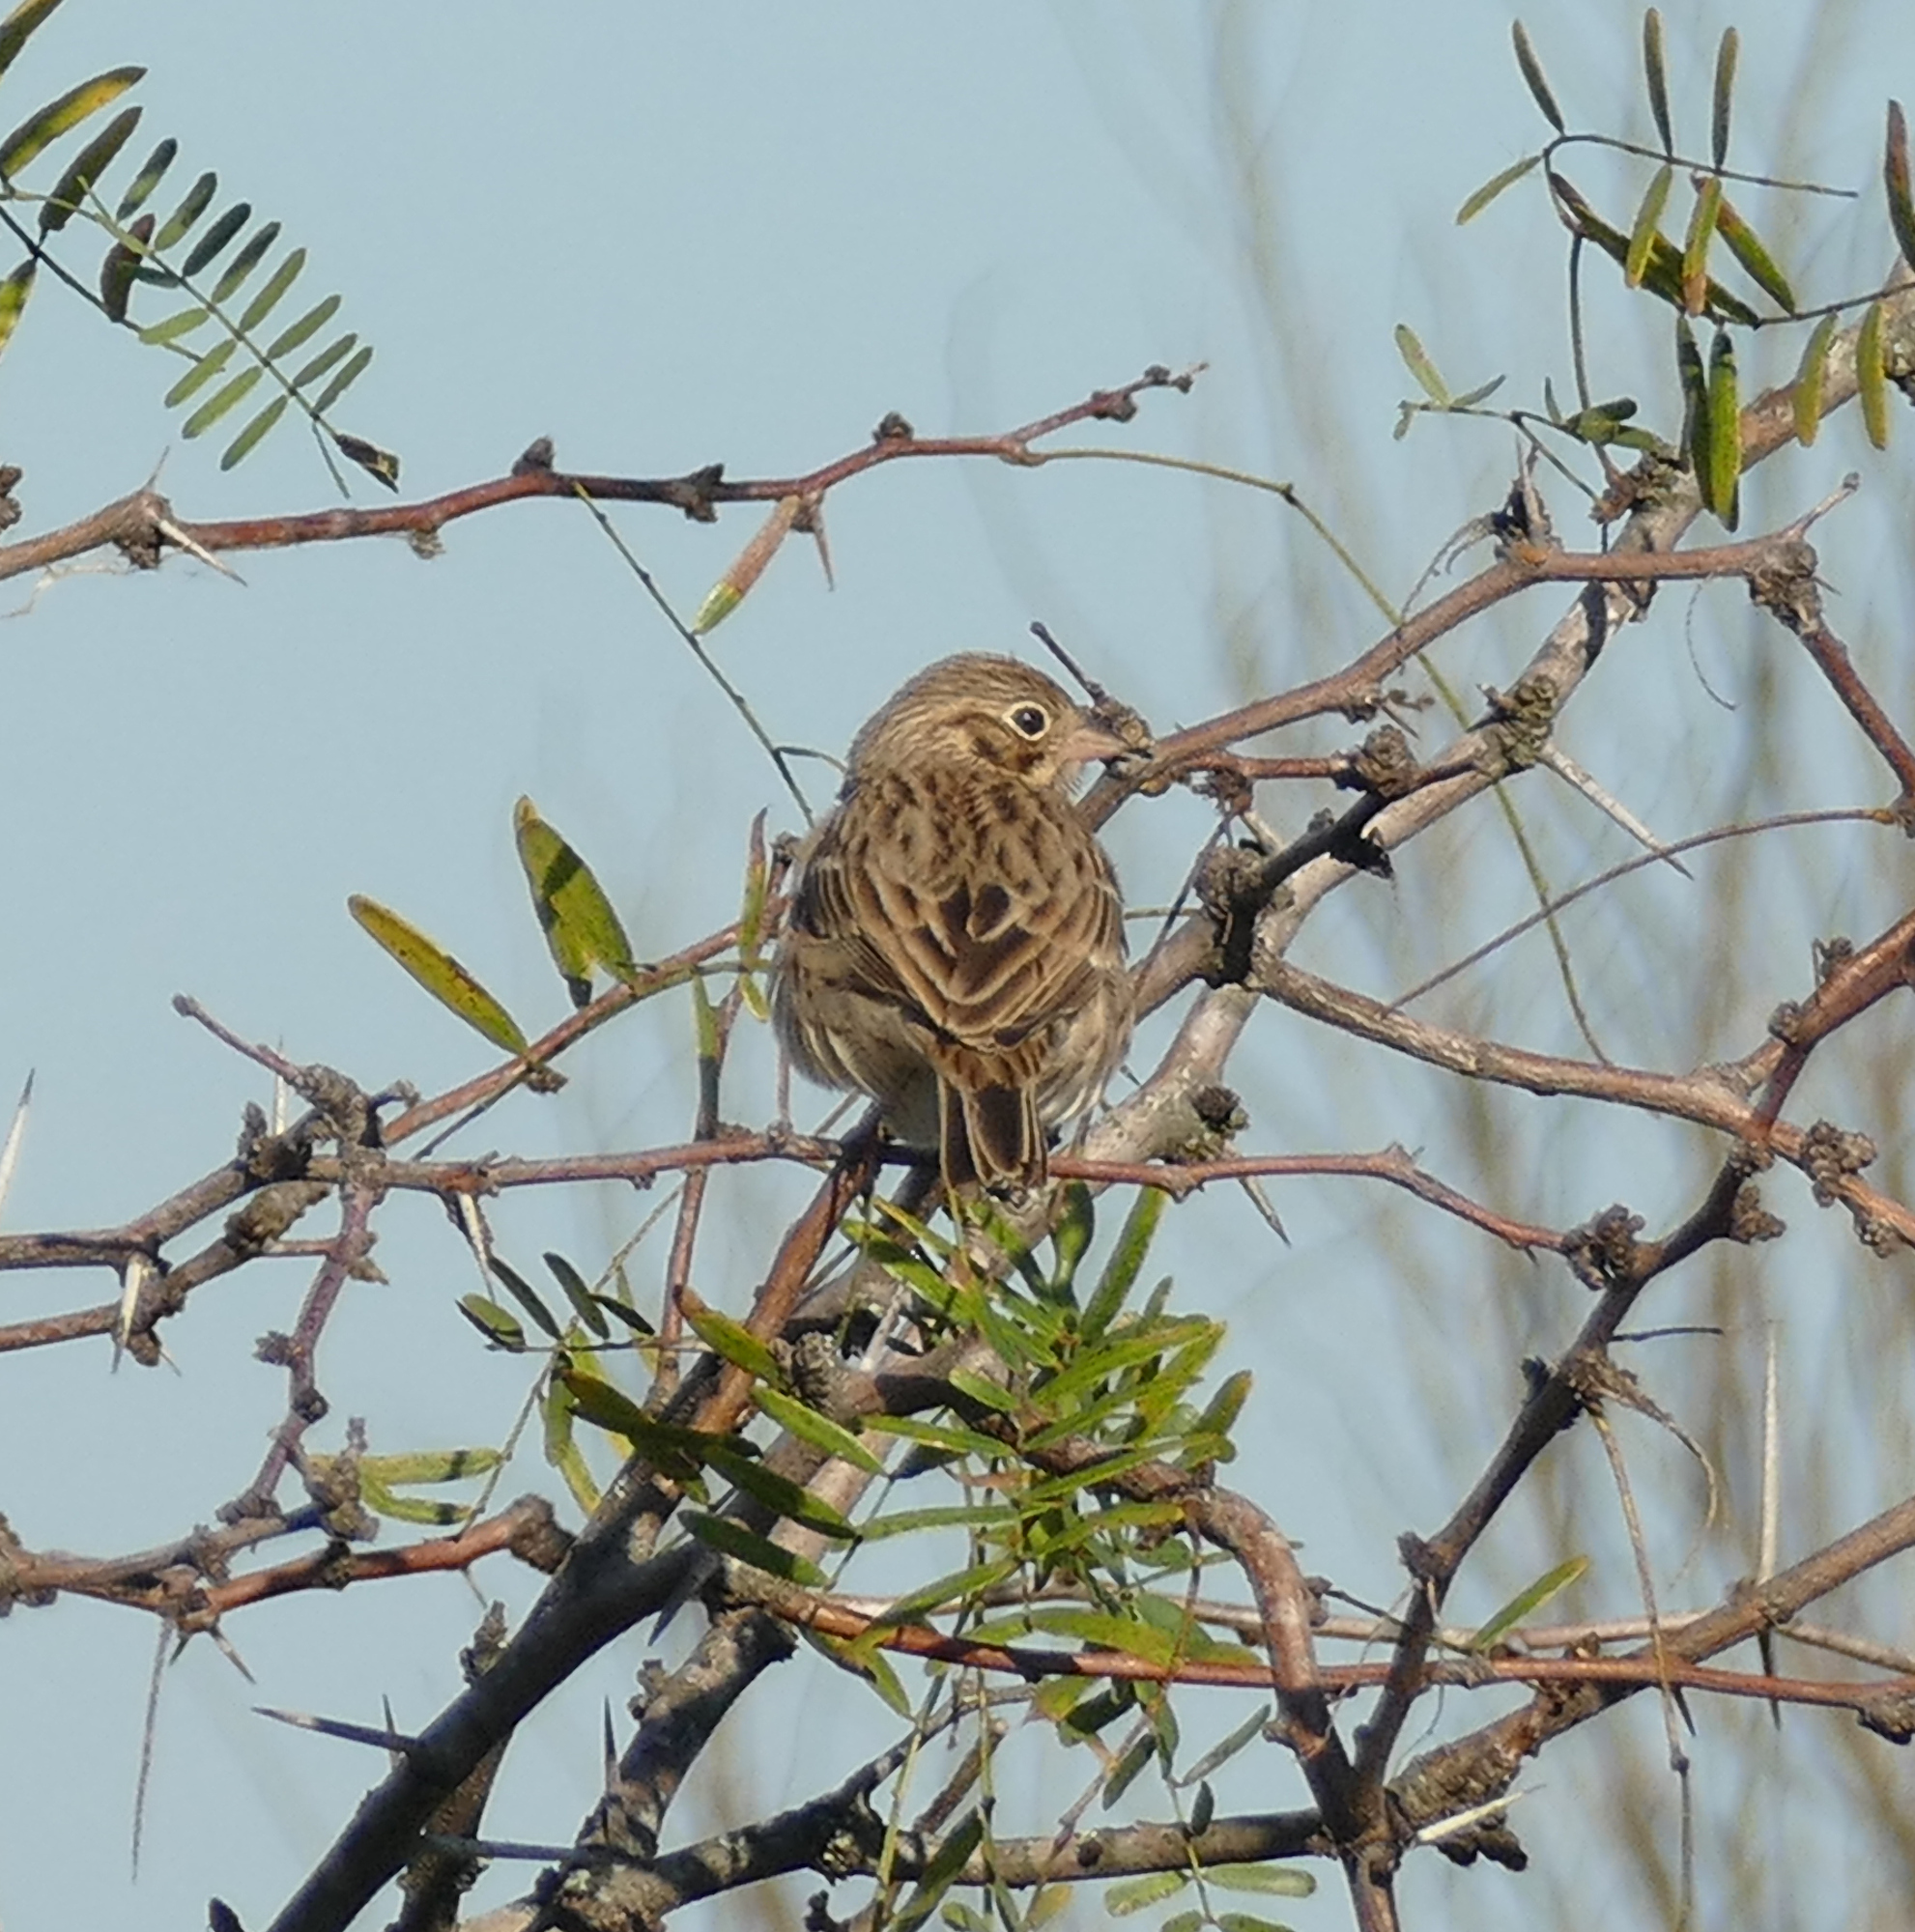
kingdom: Animalia
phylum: Chordata
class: Aves
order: Passeriformes
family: Passerellidae
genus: Pooecetes
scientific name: Pooecetes gramineus
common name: Vesper sparrow
